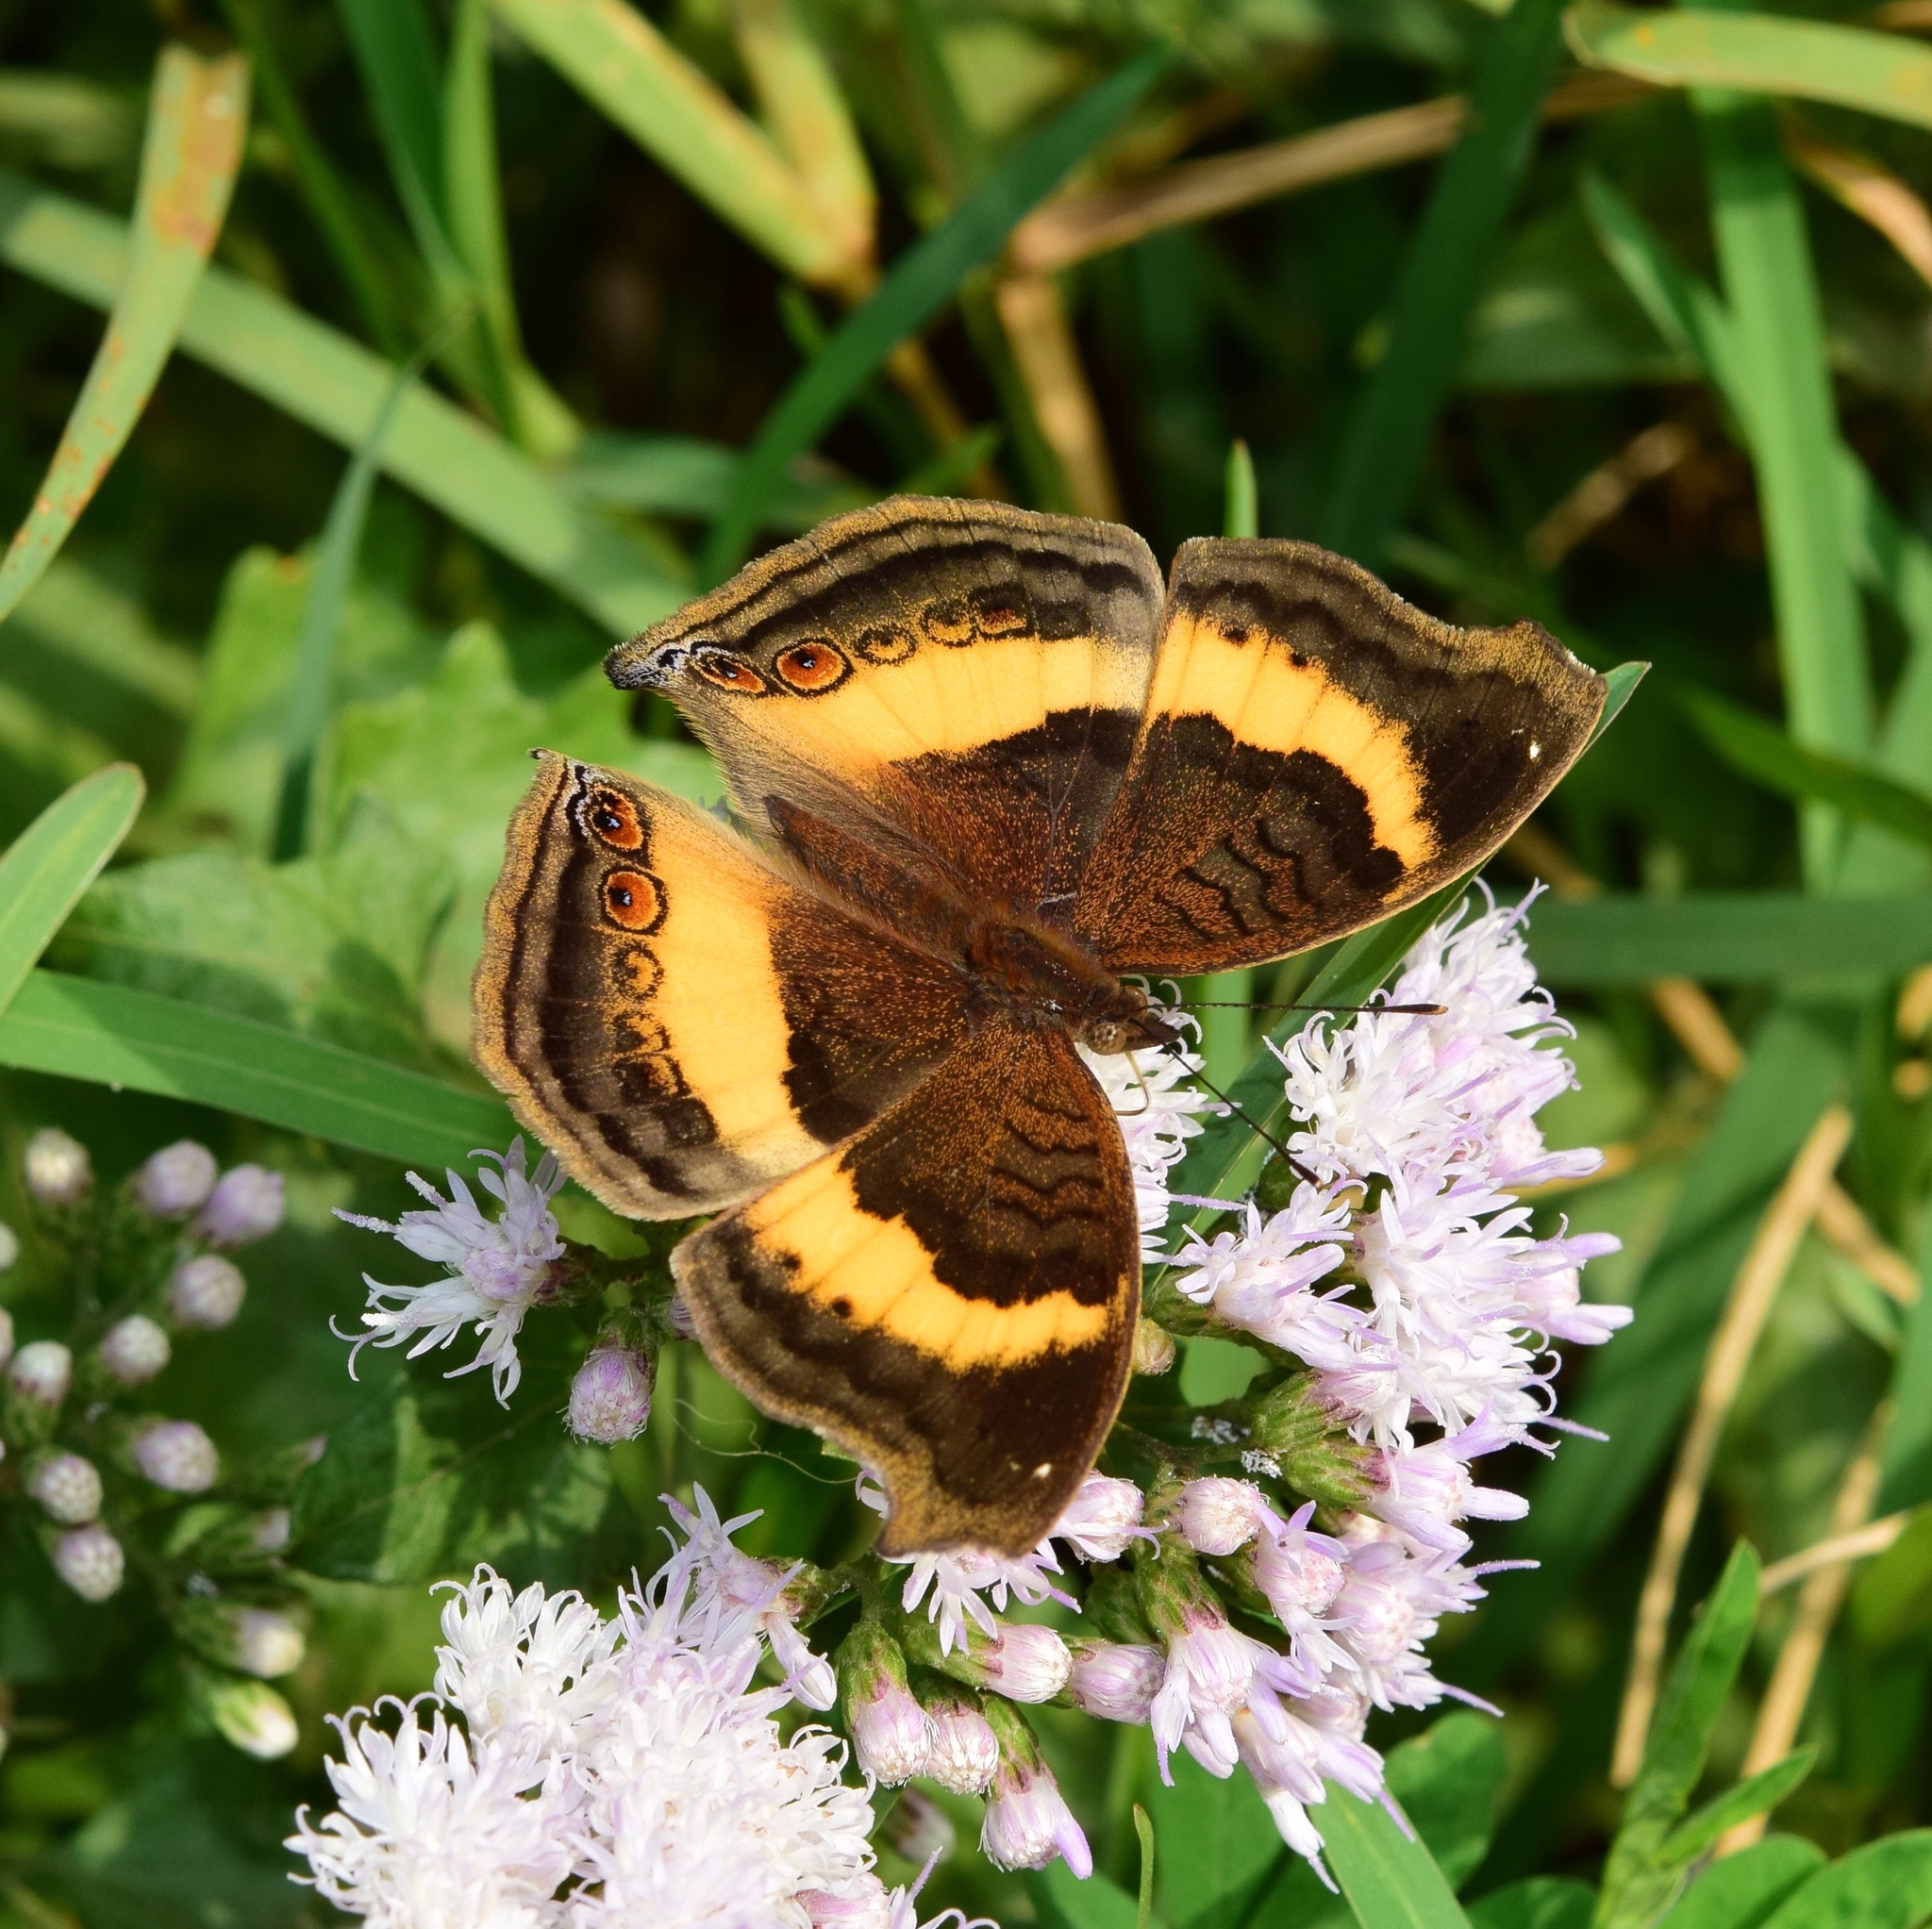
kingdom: Animalia
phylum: Arthropoda
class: Insecta
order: Lepidoptera
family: Nymphalidae
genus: Junonia
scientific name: Junonia terea
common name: Soldier pansy
